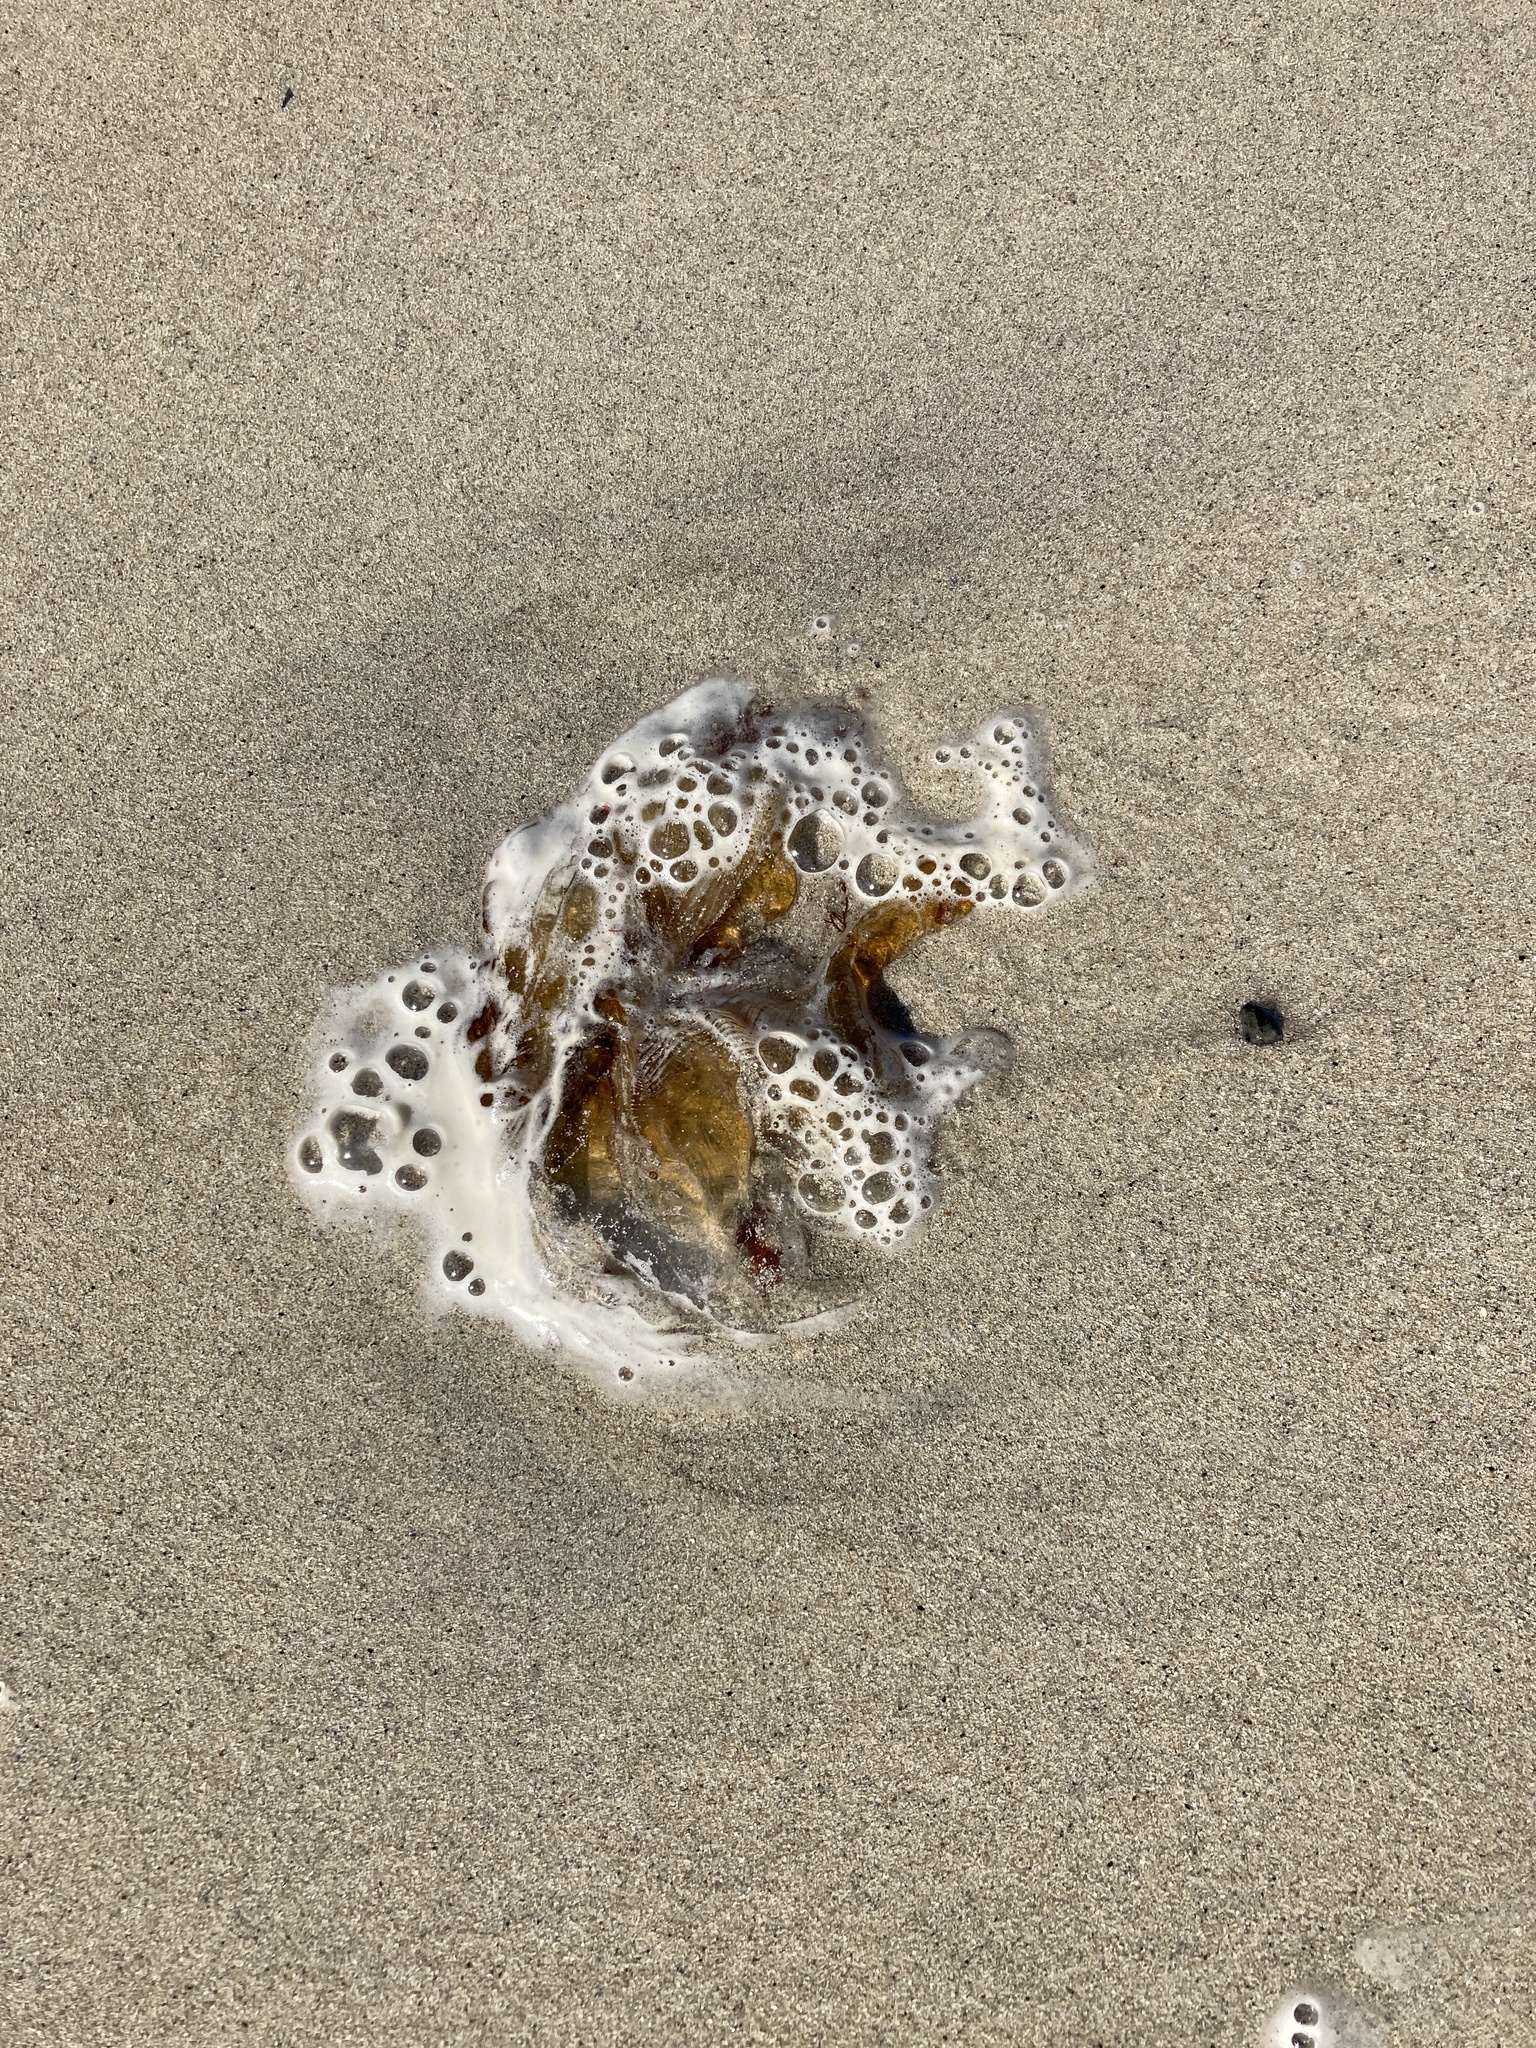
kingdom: Animalia
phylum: Cnidaria
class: Scyphozoa
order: Semaeostomeae
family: Cyaneidae
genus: Cyanea
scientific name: Cyanea capillata
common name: Lion's mane jellyfish
